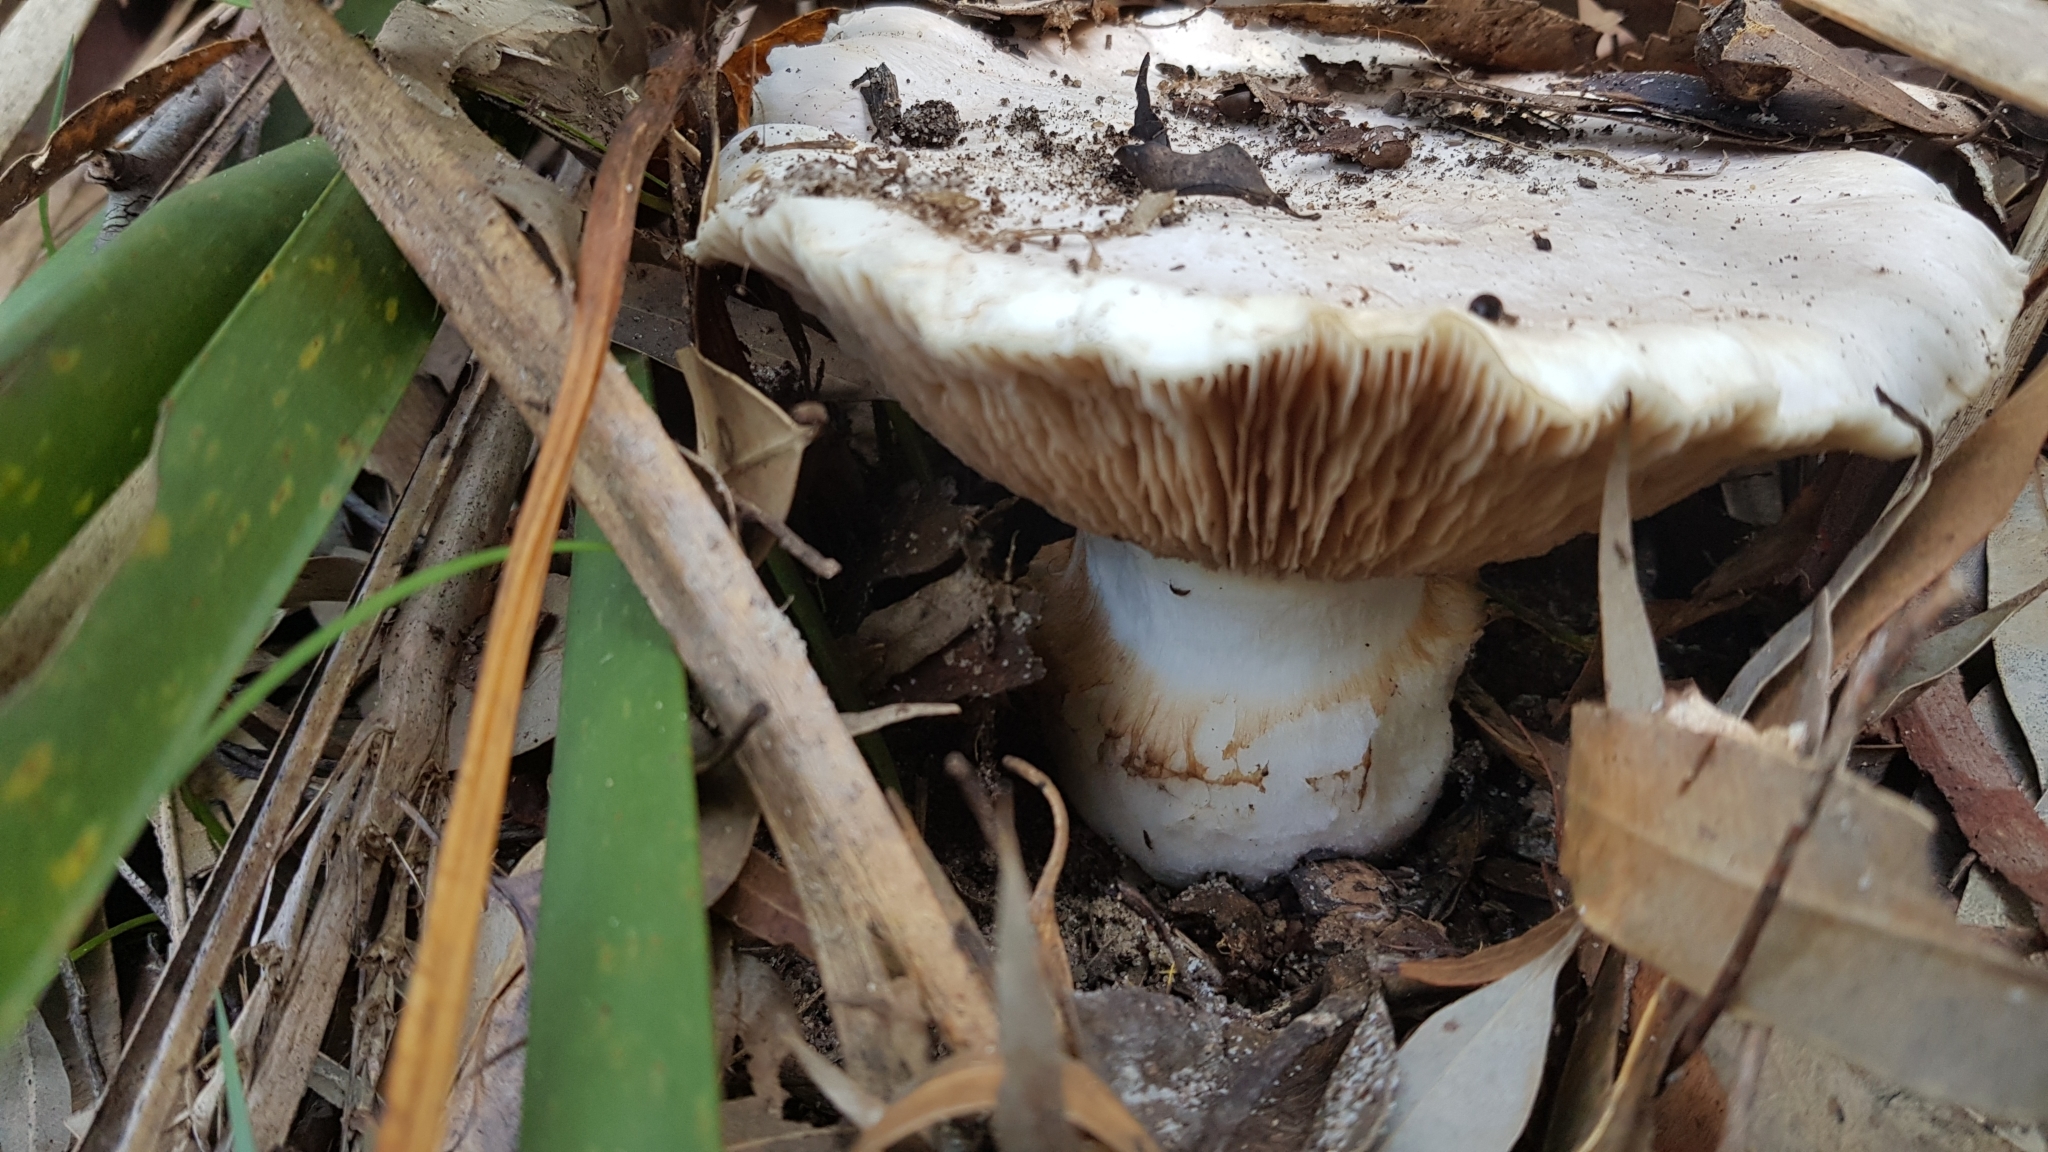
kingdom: Fungi
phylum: Basidiomycota
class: Agaricomycetes
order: Agaricales
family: Cortinariaceae
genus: Austrocortinarius
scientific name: Austrocortinarius australiensis
